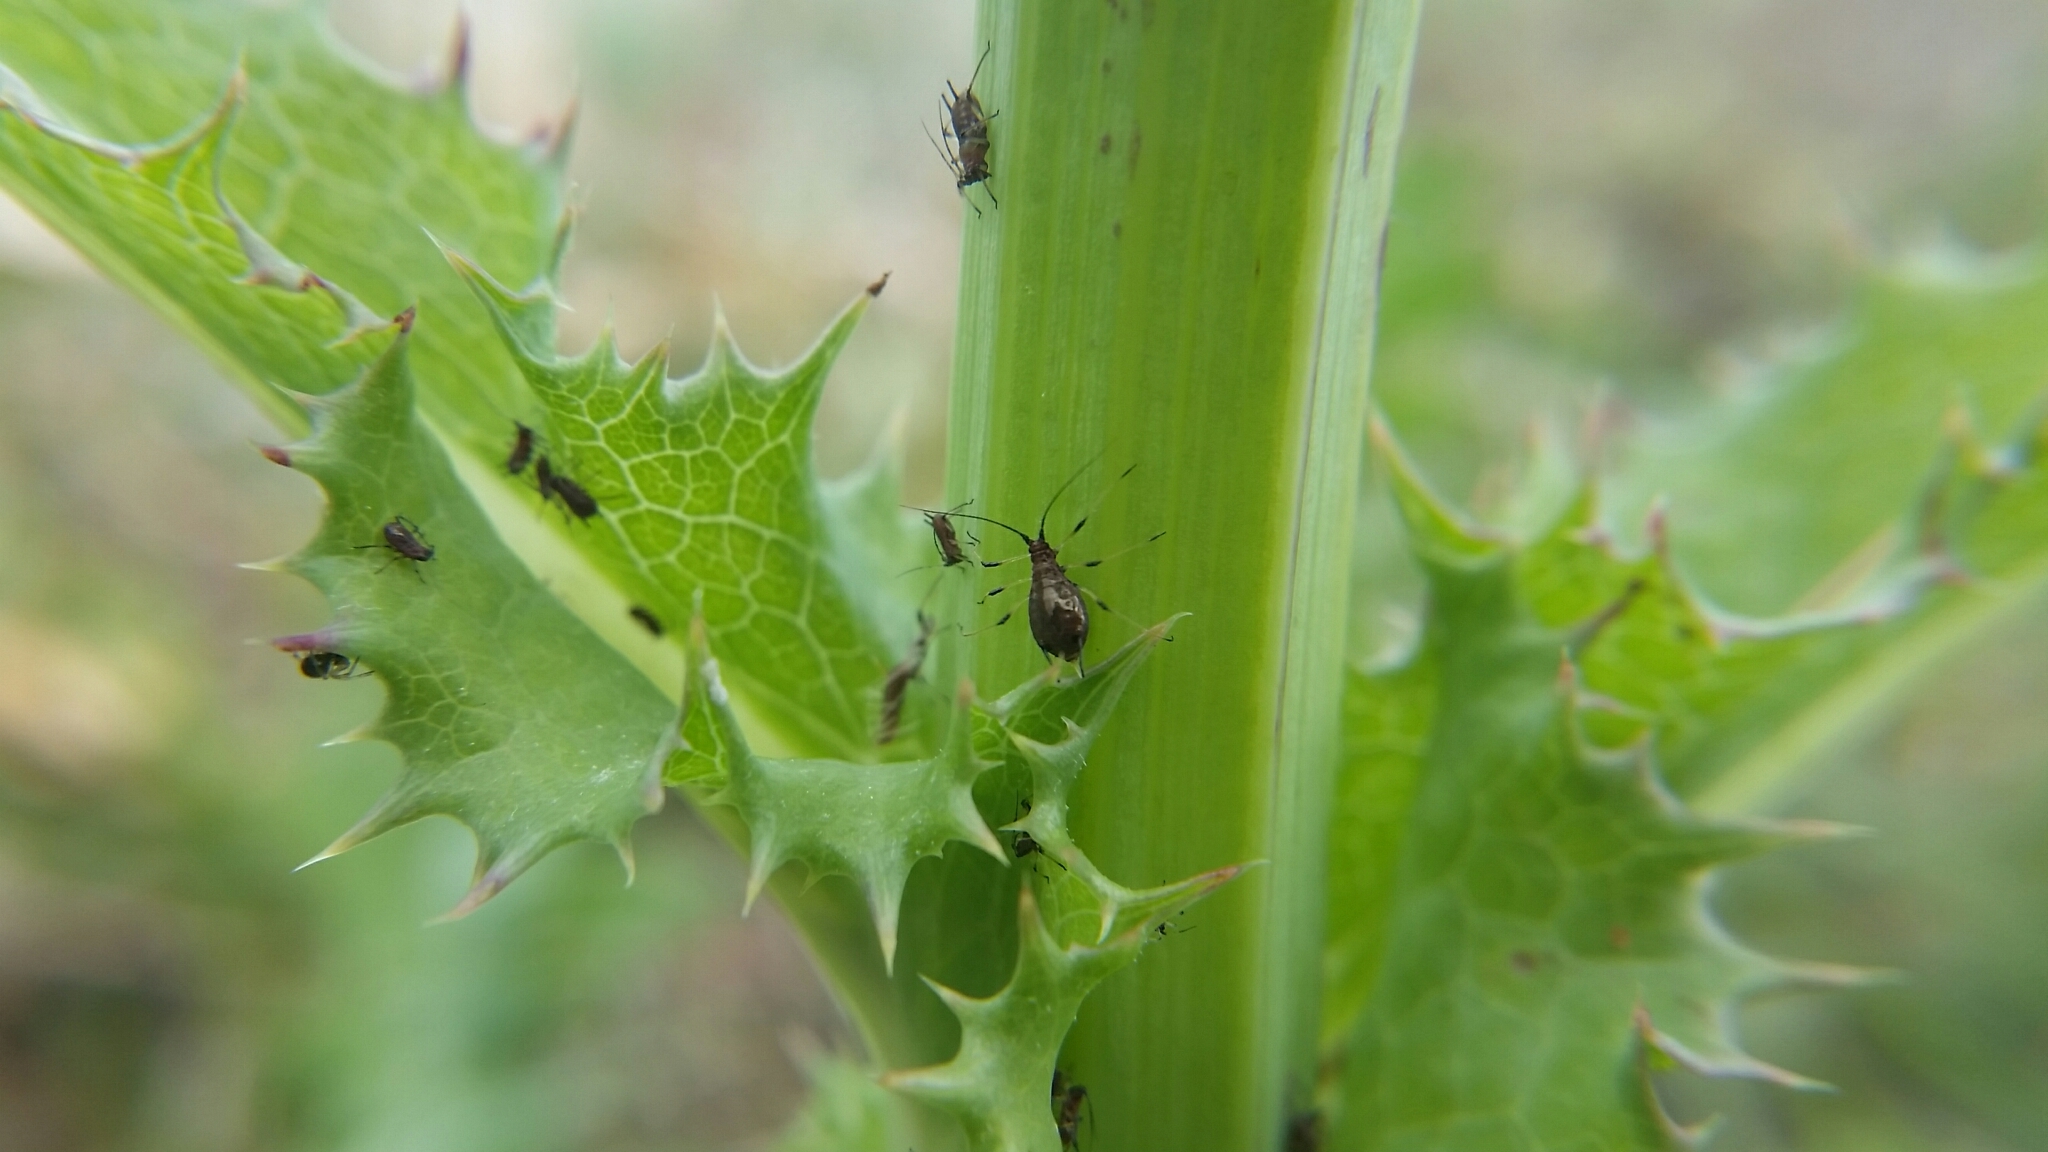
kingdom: Animalia
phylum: Arthropoda
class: Insecta
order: Hemiptera
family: Aphididae
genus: Uroleucon
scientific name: Uroleucon
